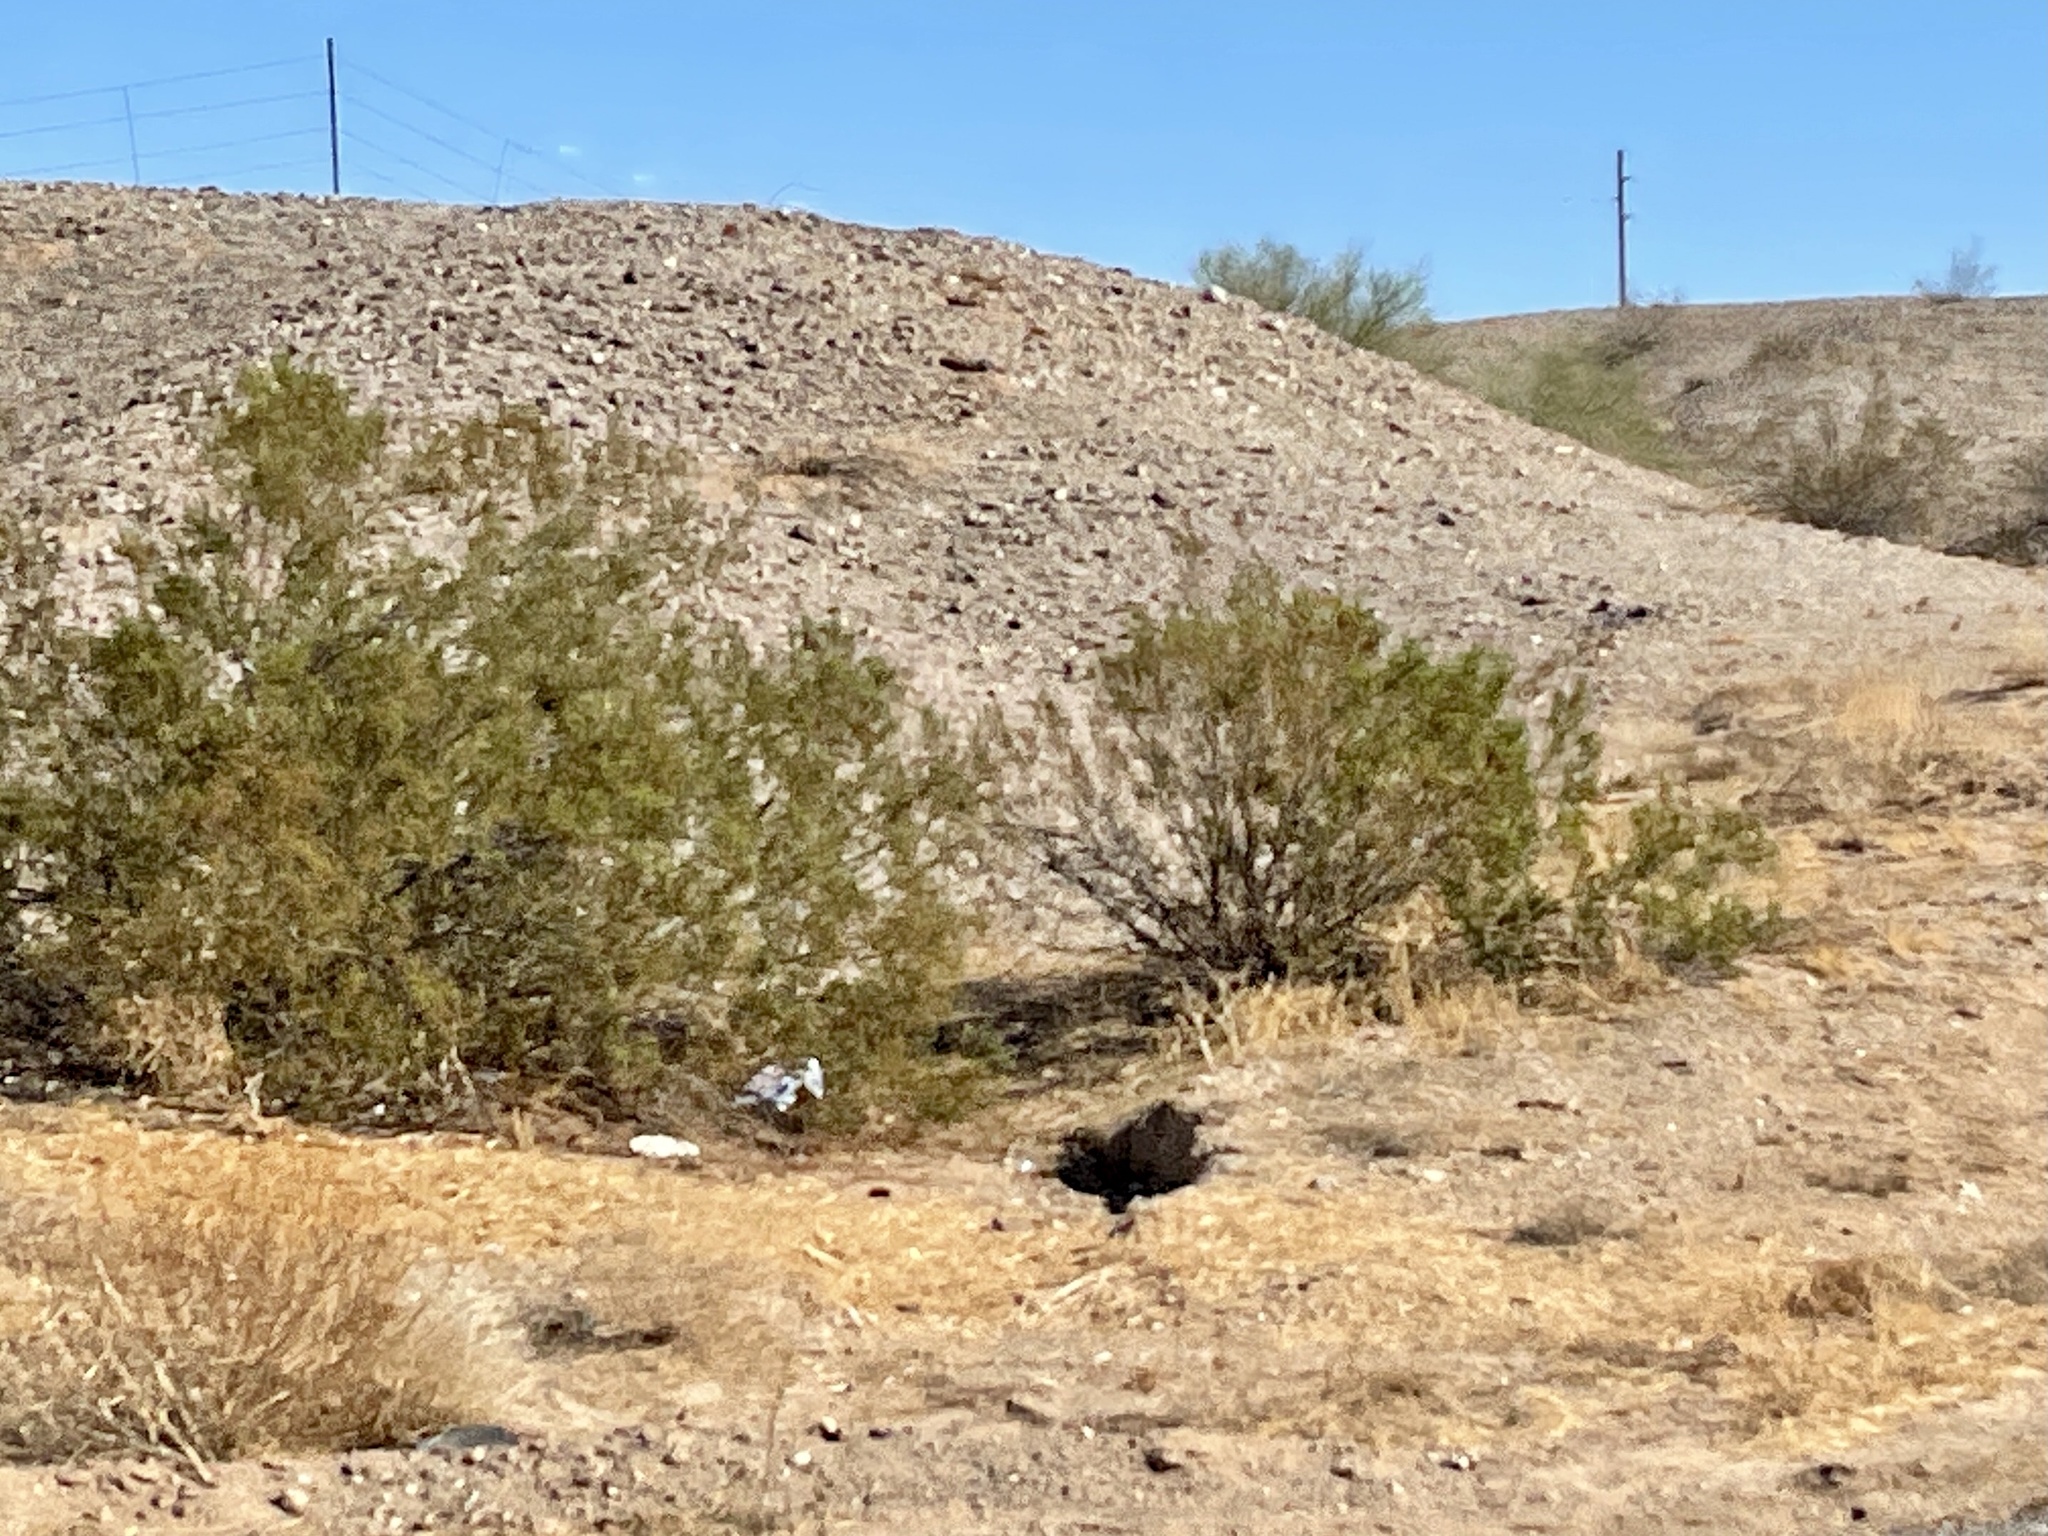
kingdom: Plantae
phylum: Tracheophyta
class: Magnoliopsida
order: Zygophyllales
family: Zygophyllaceae
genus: Larrea
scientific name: Larrea tridentata
